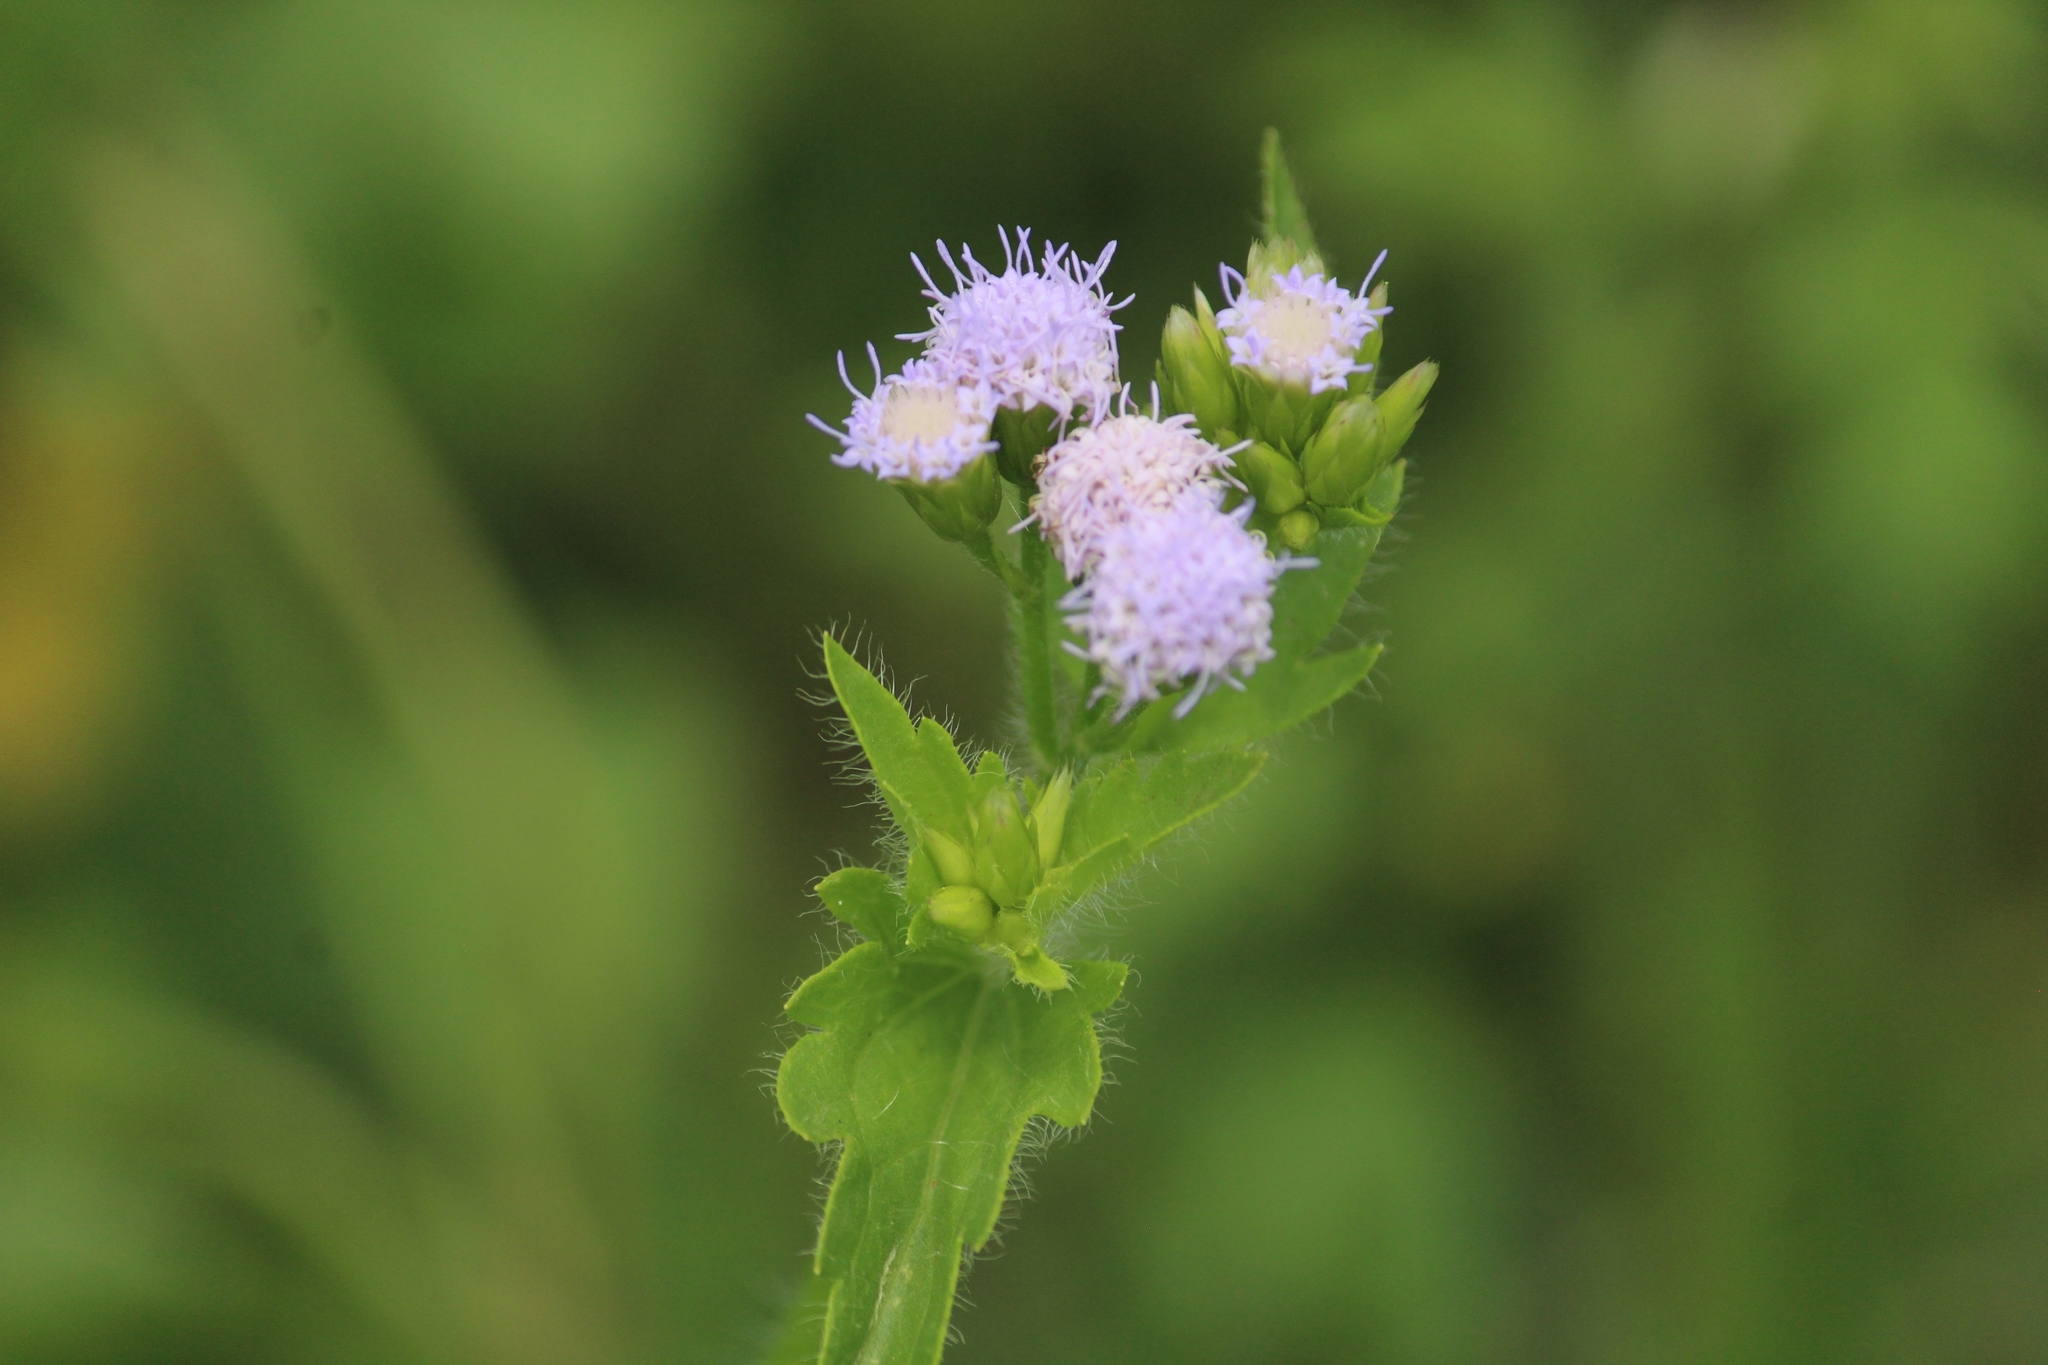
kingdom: Plantae
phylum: Tracheophyta
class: Magnoliopsida
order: Asterales
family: Asteraceae
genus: Praxelis
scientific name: Praxelis clematidea
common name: Praxelis
